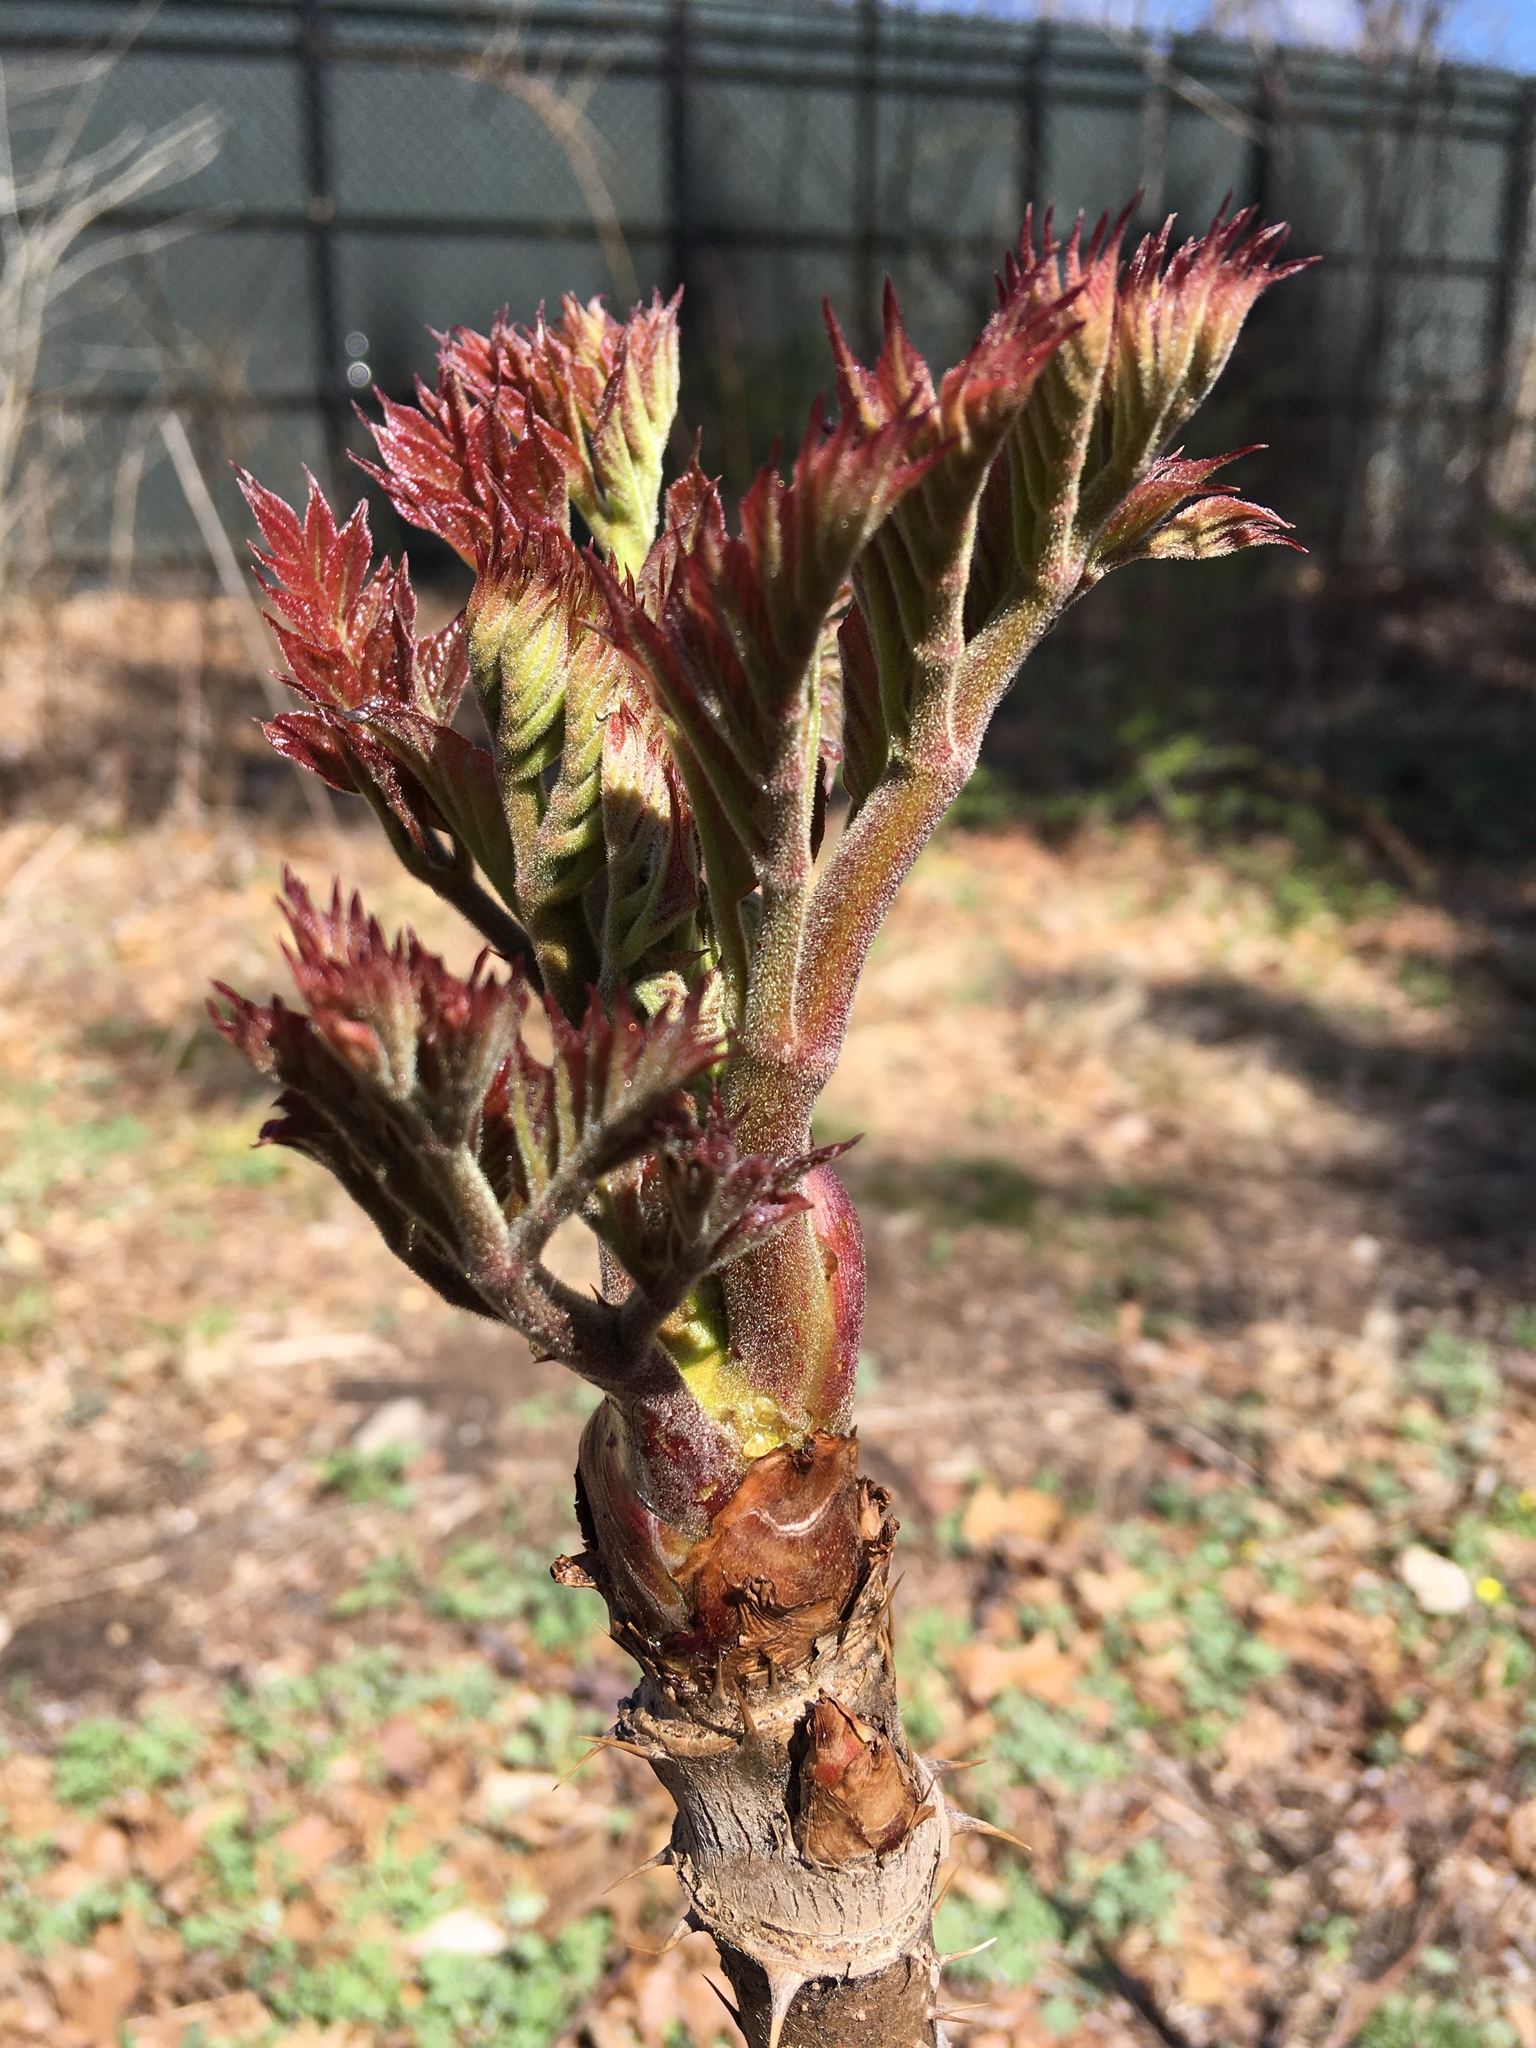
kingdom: Plantae
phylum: Tracheophyta
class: Magnoliopsida
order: Apiales
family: Araliaceae
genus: Aralia
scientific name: Aralia elata
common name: Japanese angelica-tree
